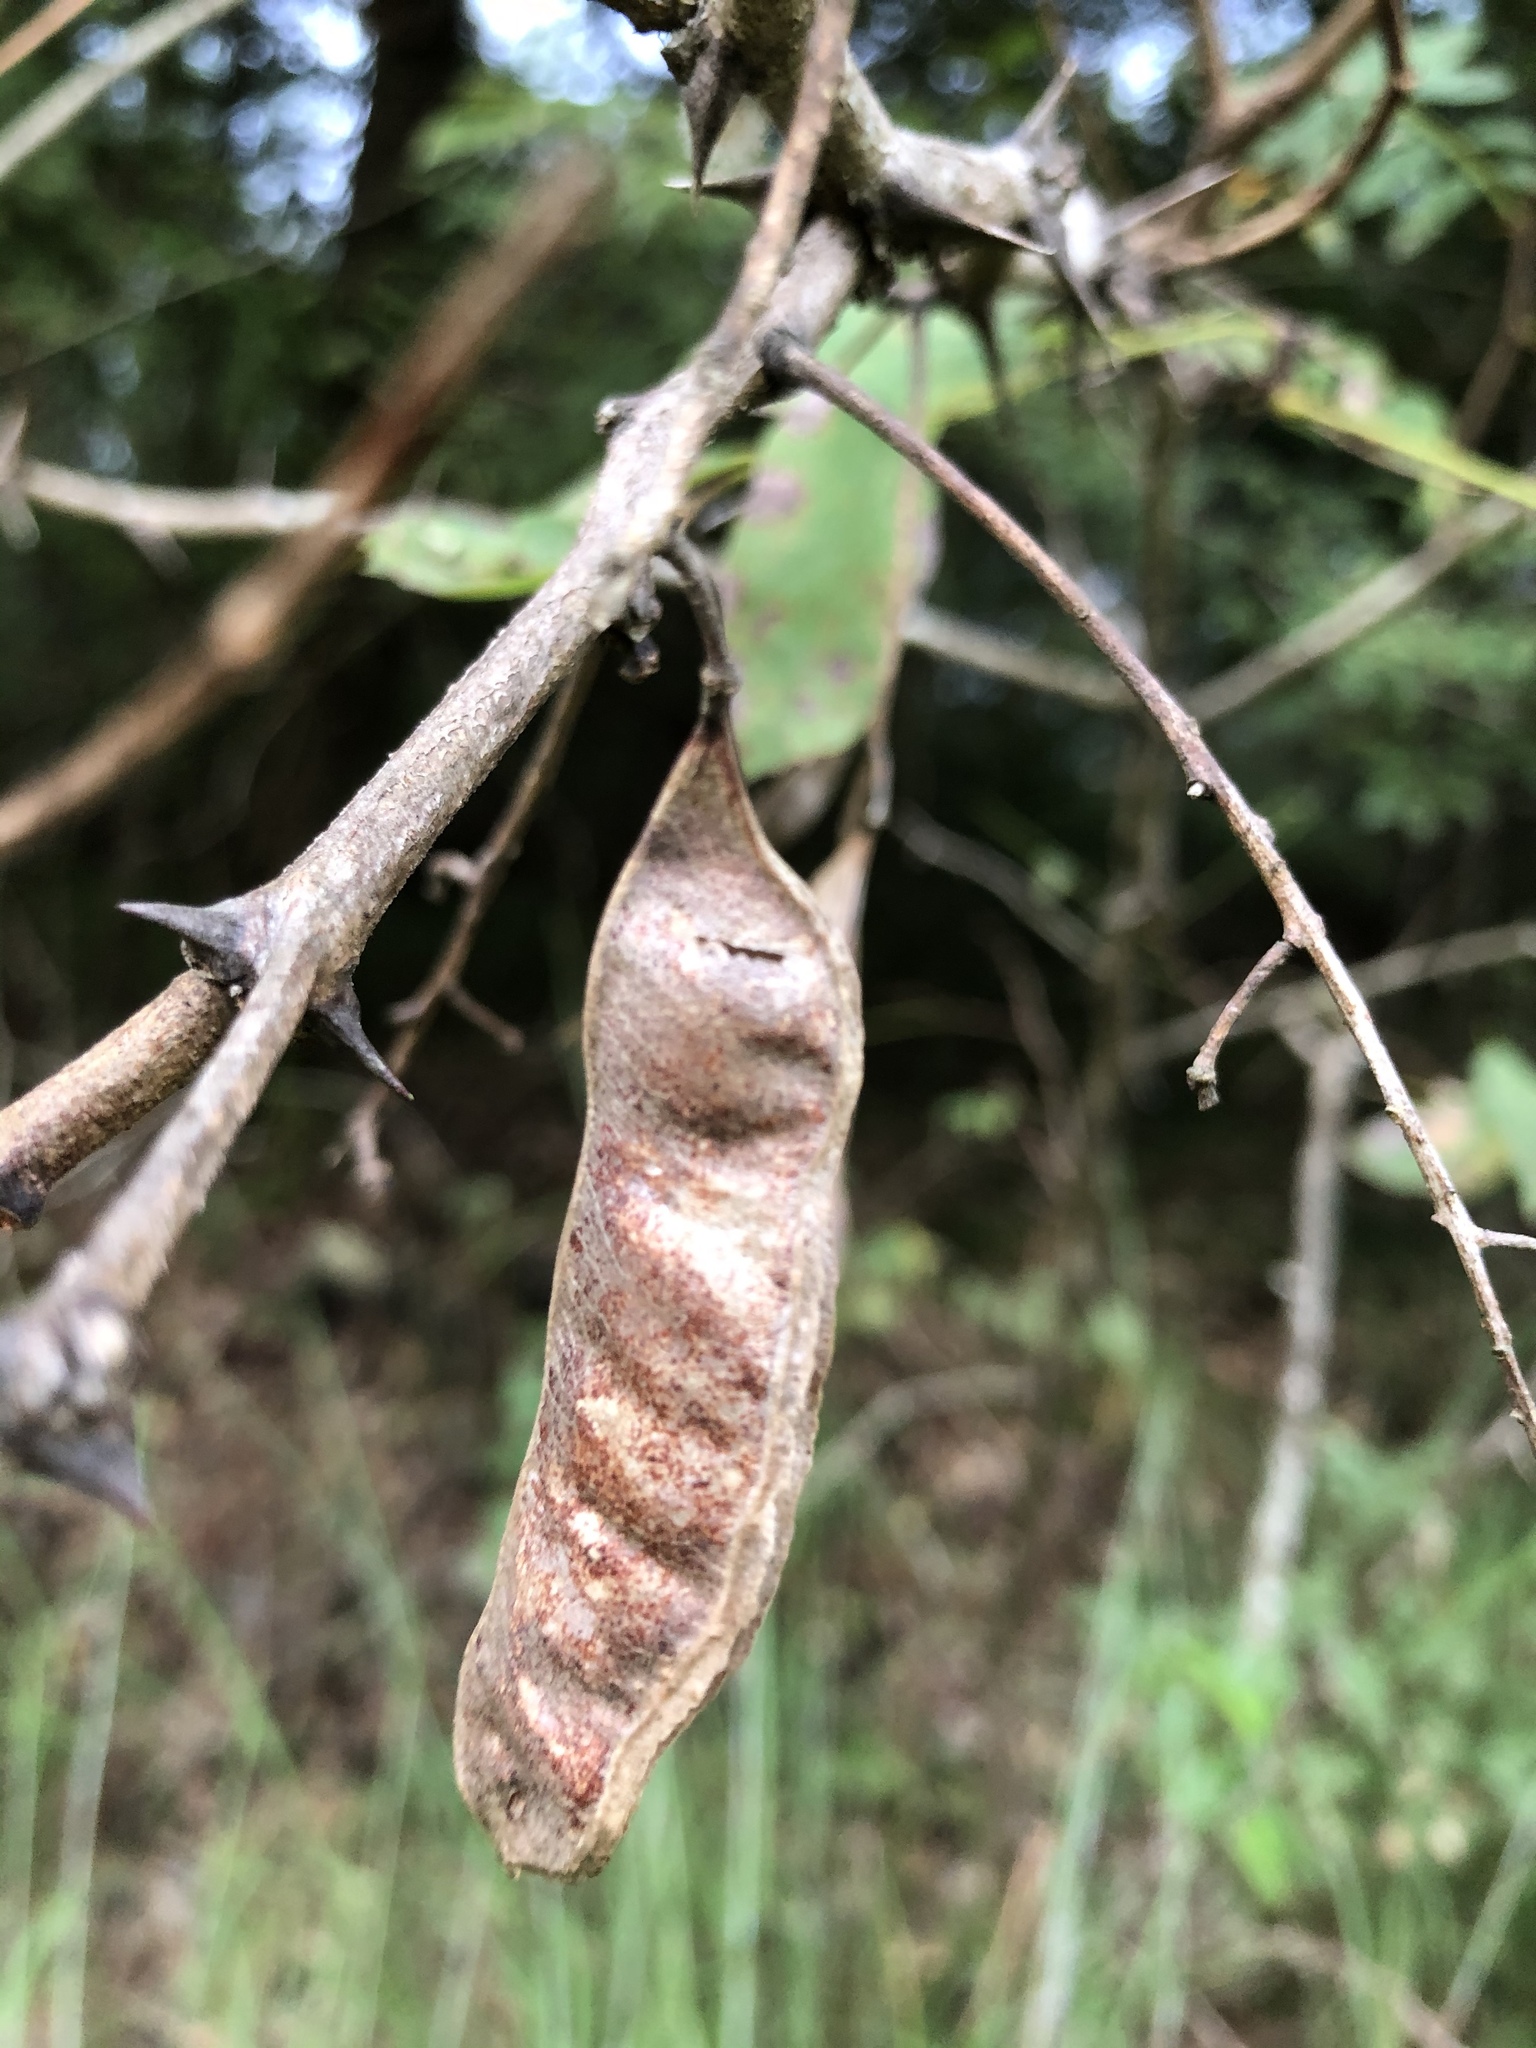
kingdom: Plantae
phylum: Tracheophyta
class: Magnoliopsida
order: Fabales
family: Fabaceae
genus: Robinia
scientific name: Robinia pseudoacacia
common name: Black locust
